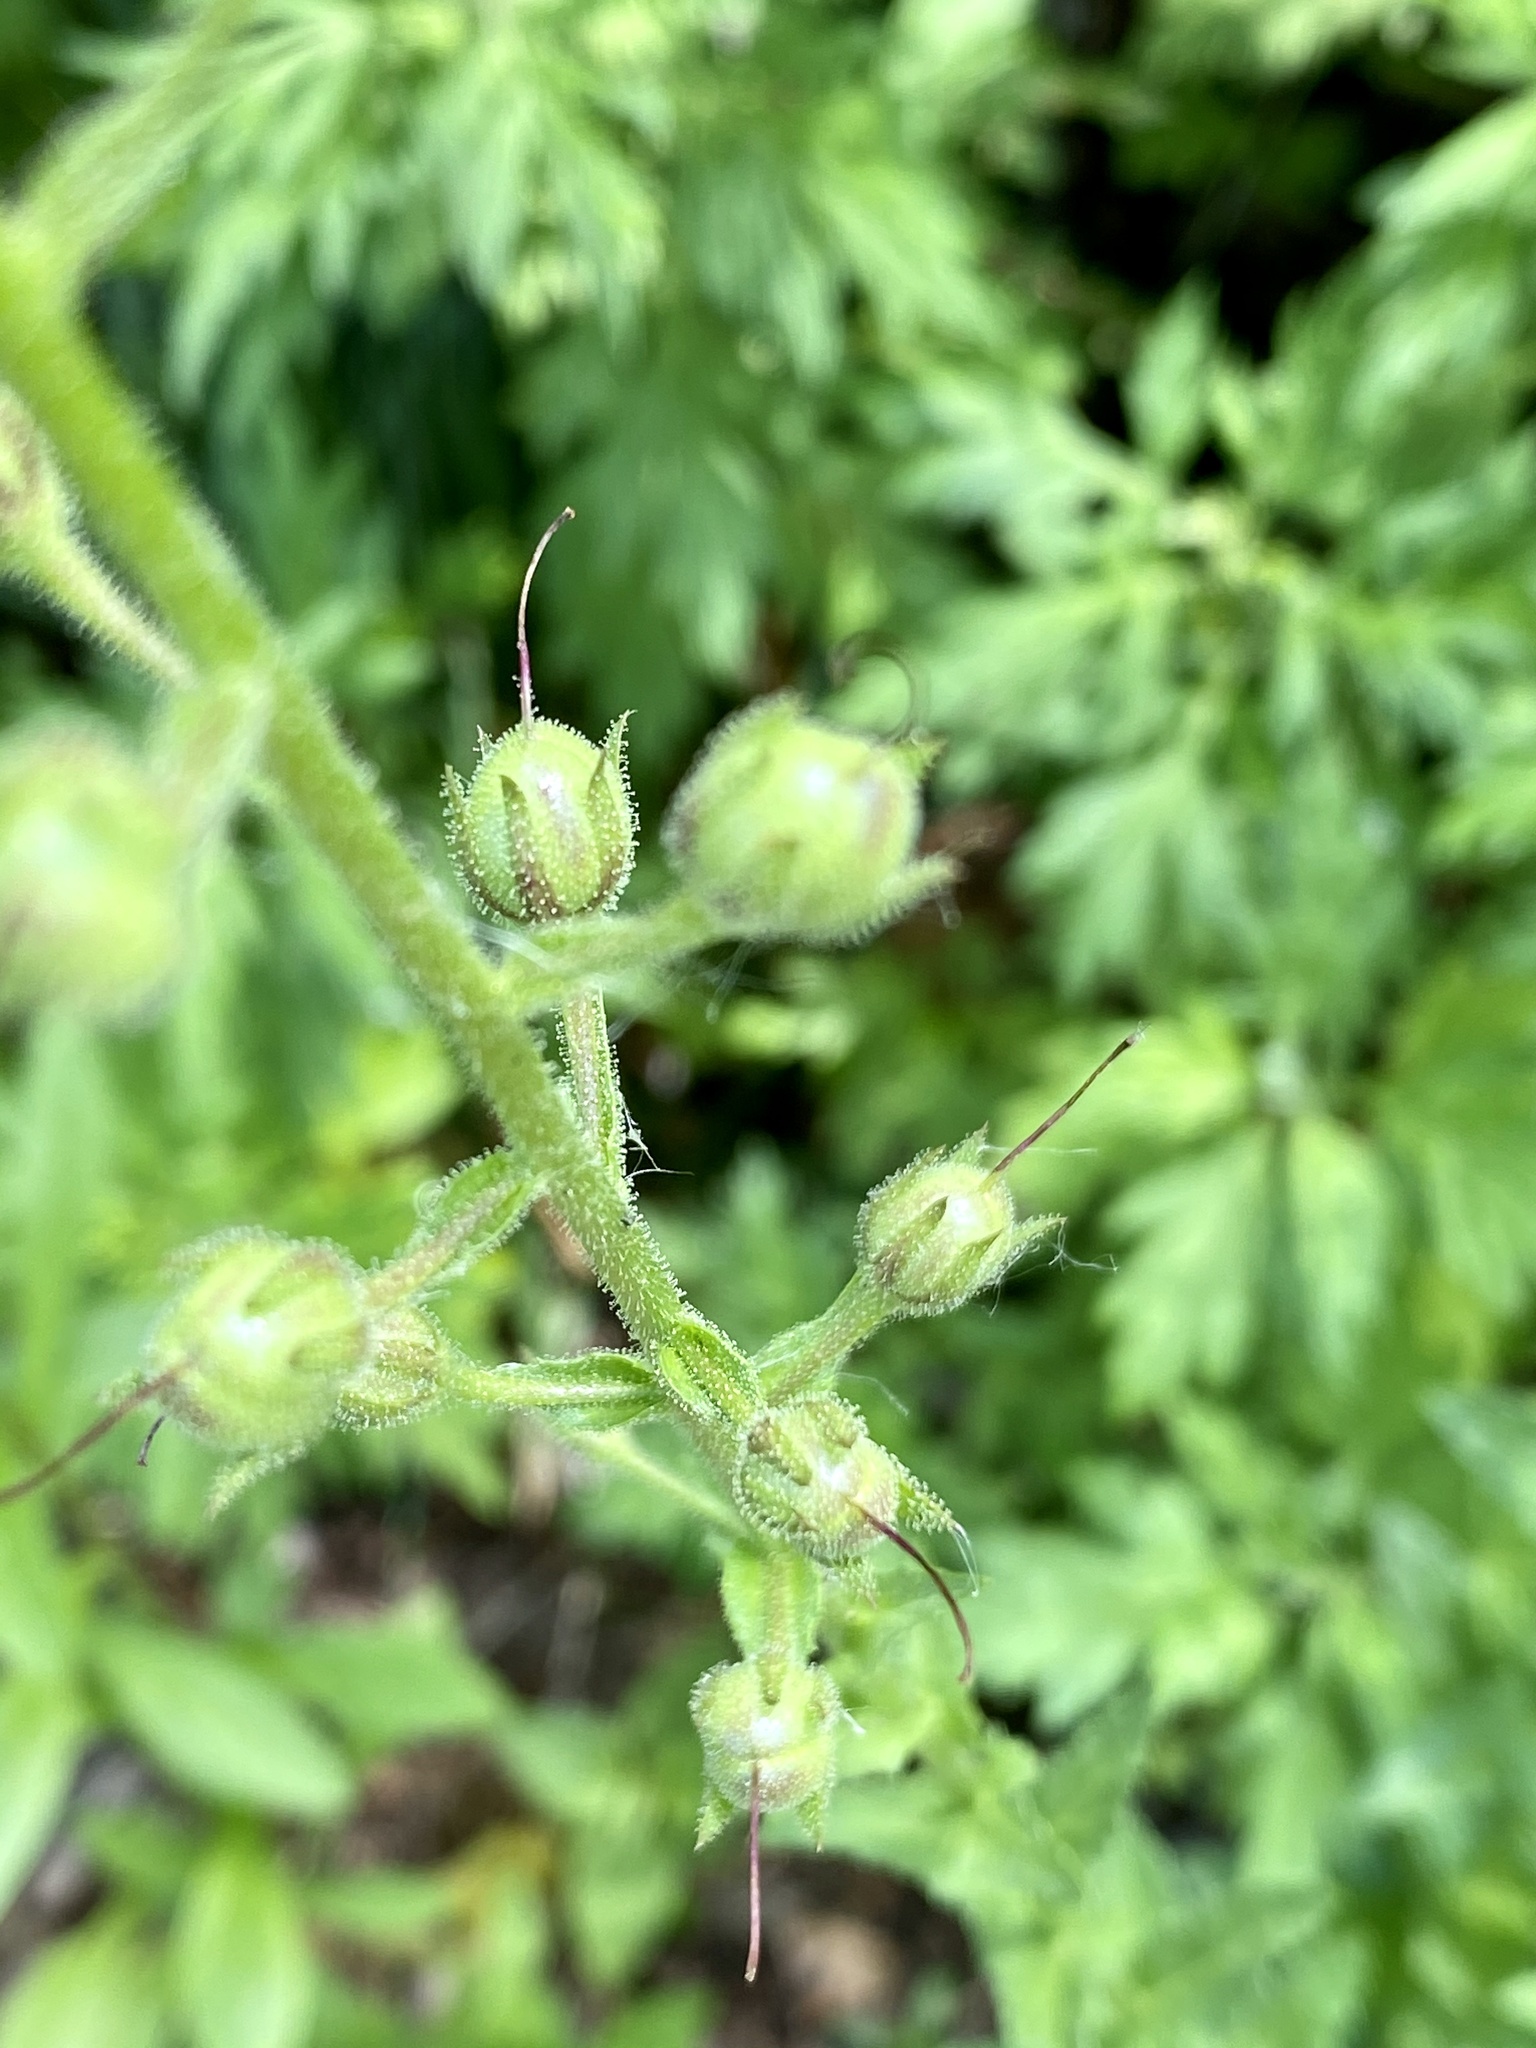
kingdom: Plantae
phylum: Tracheophyta
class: Magnoliopsida
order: Lamiales
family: Scrophulariaceae
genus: Verbascum
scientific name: Verbascum blattaria
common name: Moth mullein
